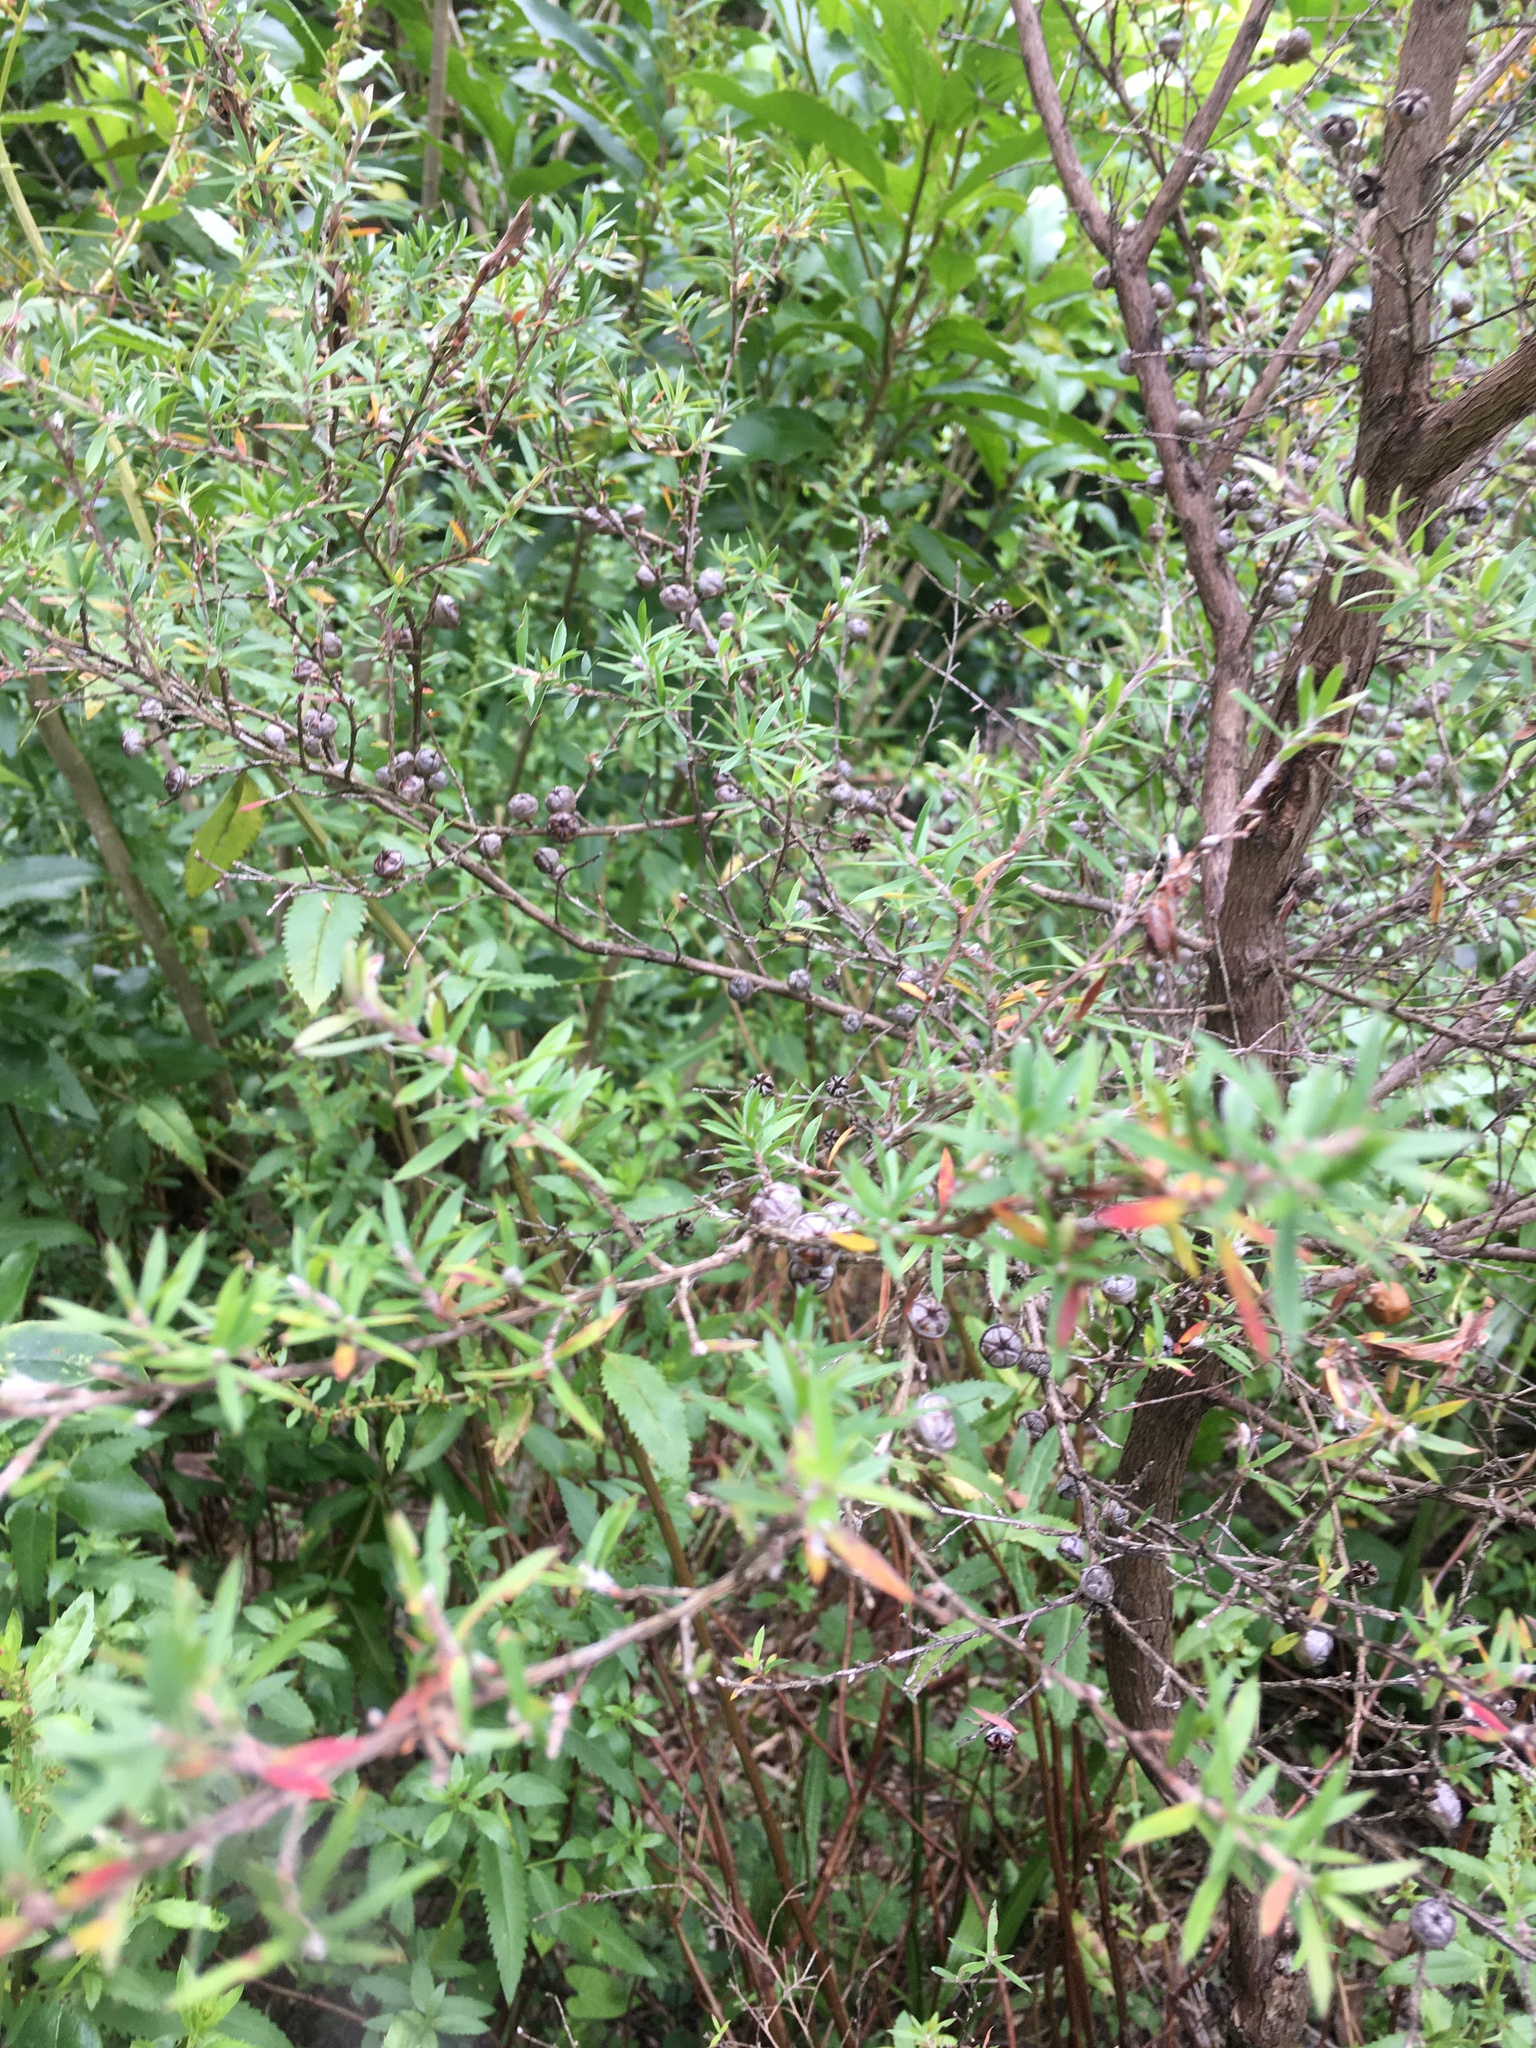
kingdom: Plantae
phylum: Tracheophyta
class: Magnoliopsida
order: Myrtales
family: Myrtaceae
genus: Leptospermum
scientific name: Leptospermum scoparium
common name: Broom tea-tree
